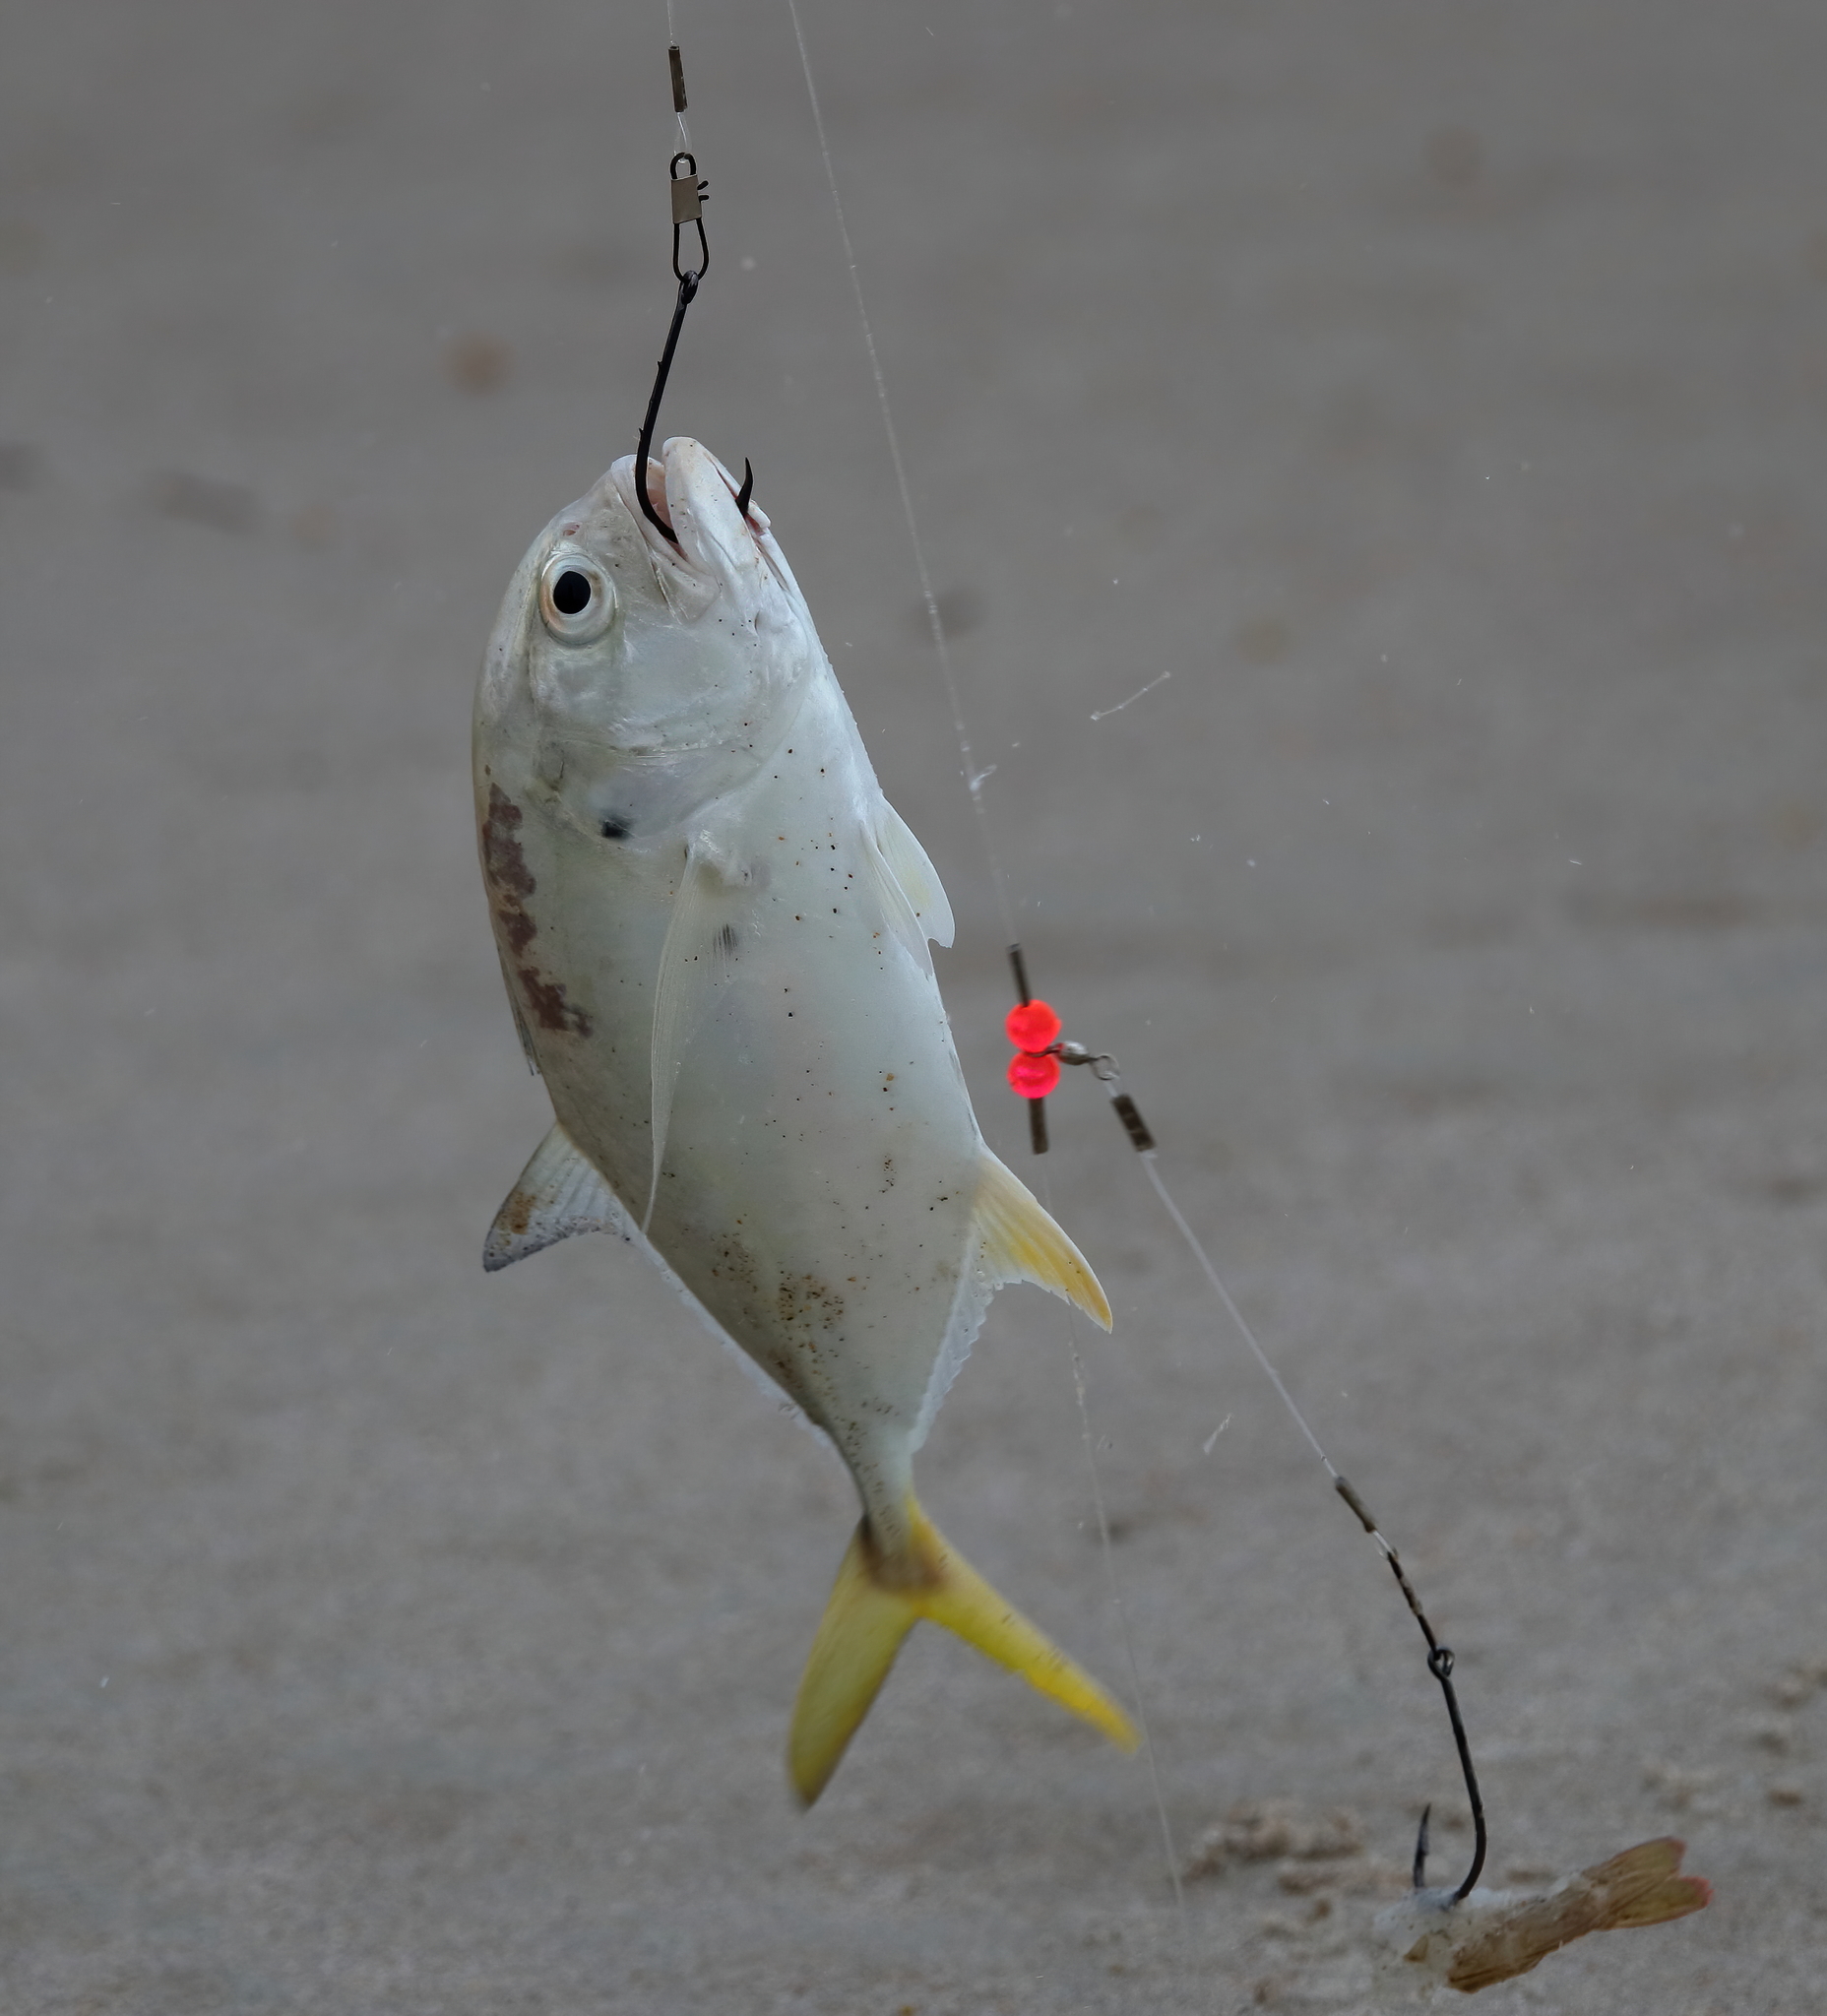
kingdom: Animalia
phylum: Chordata
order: Perciformes
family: Carangidae
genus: Caranx
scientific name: Caranx hippos
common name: Common jack
